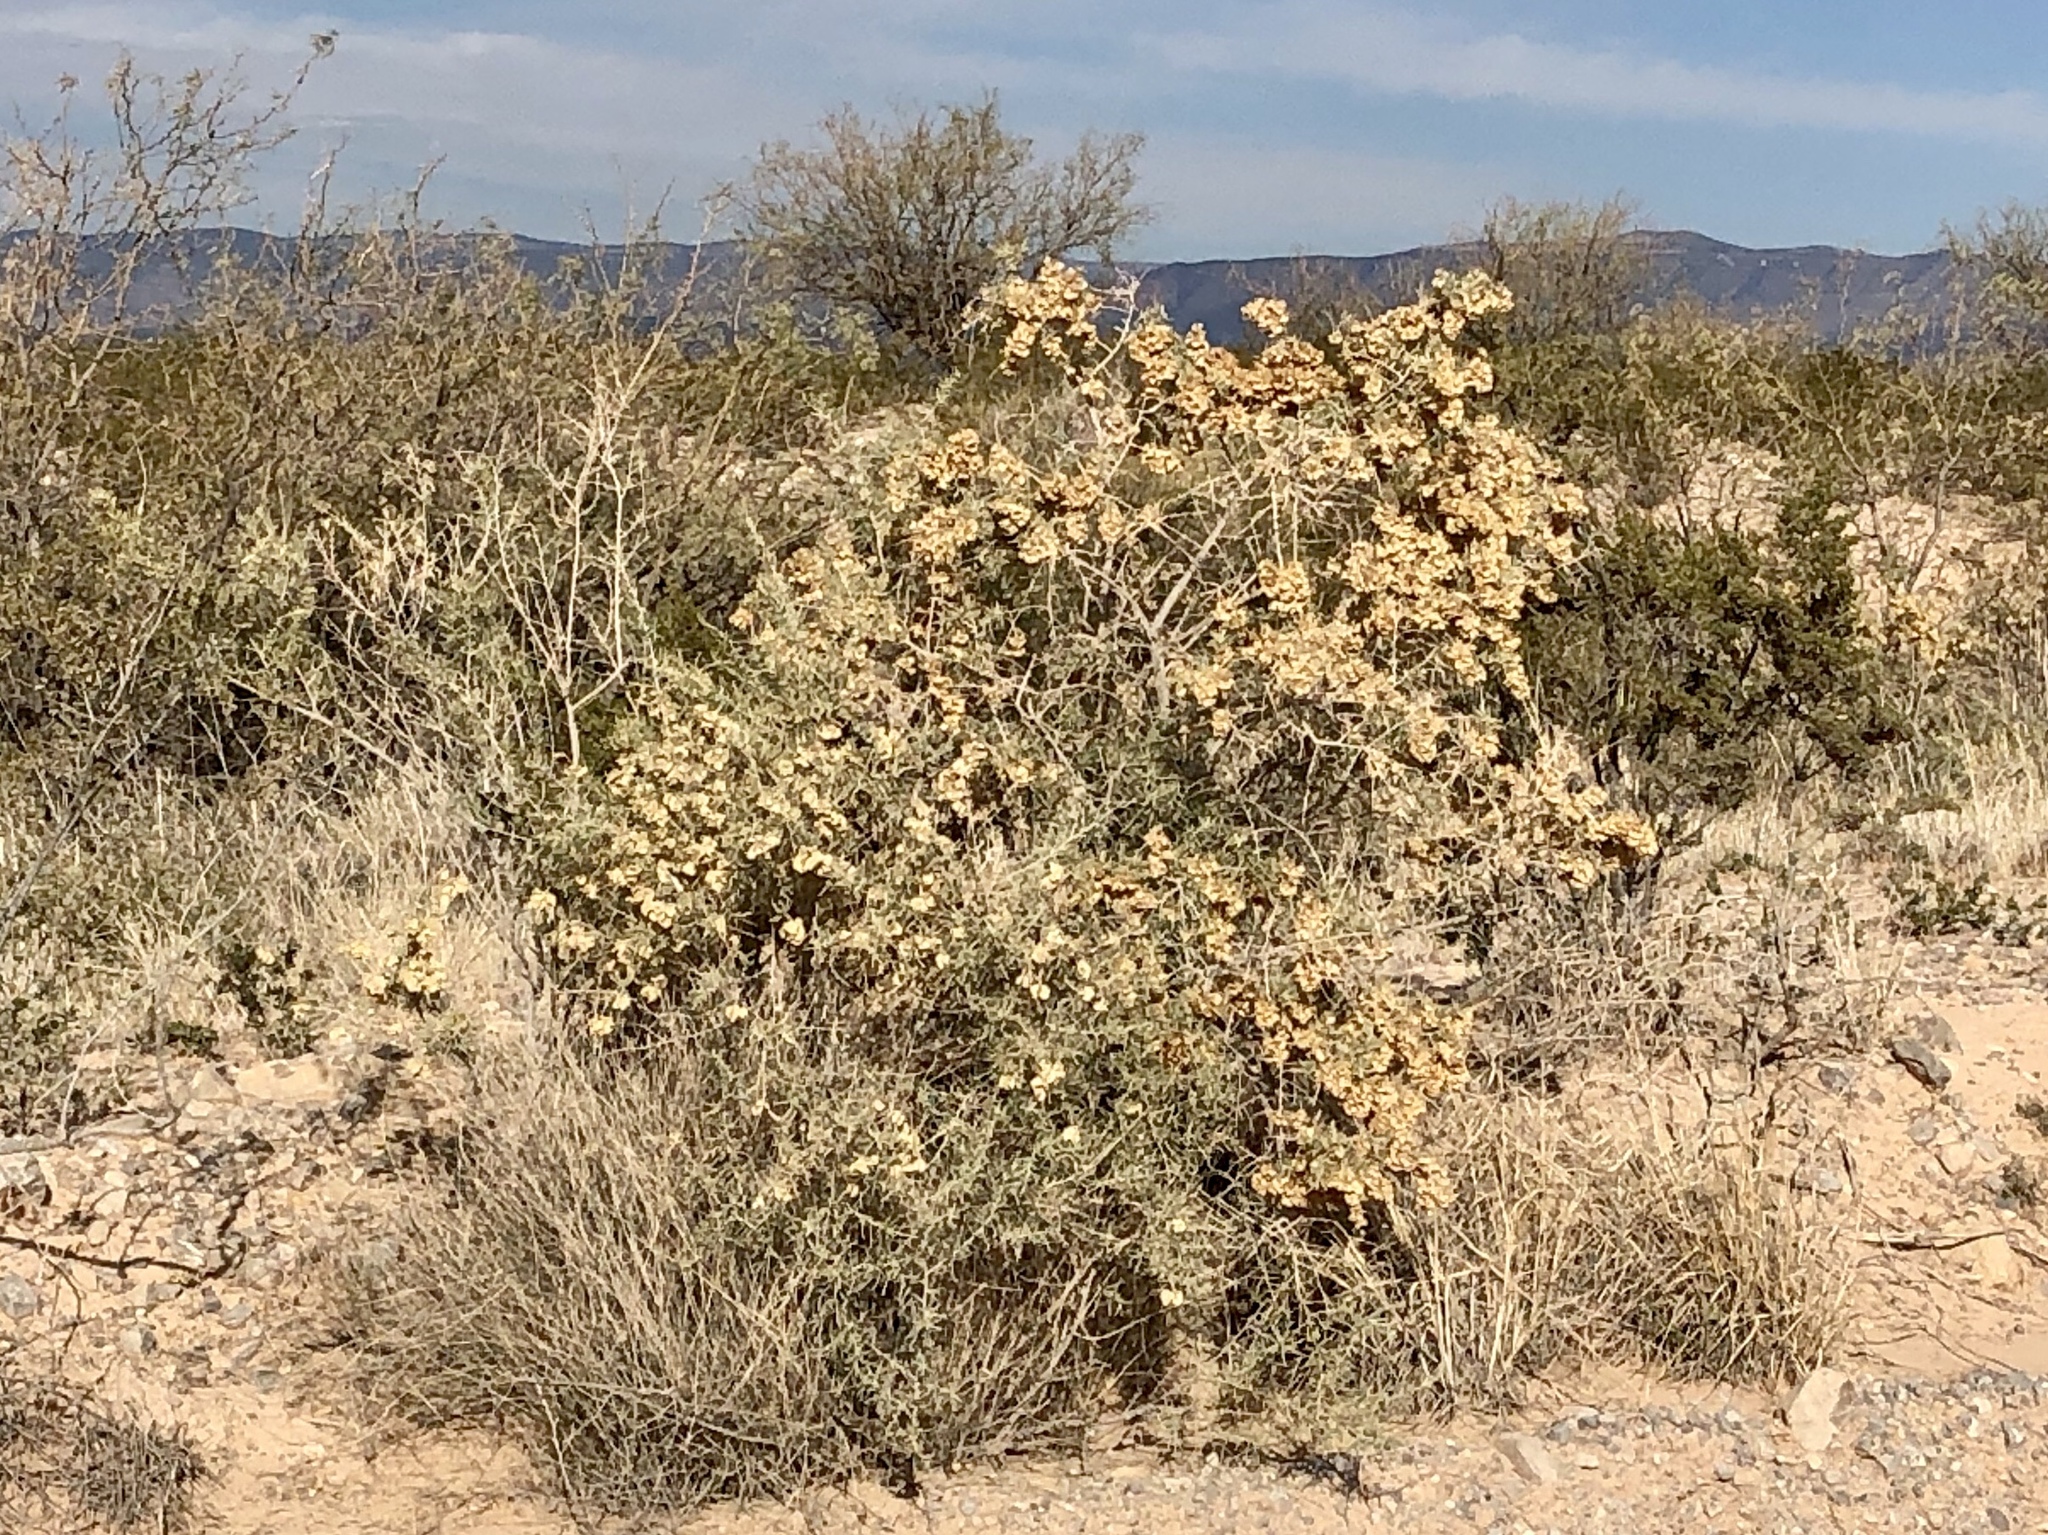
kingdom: Plantae
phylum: Tracheophyta
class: Magnoliopsida
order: Caryophyllales
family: Amaranthaceae
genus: Atriplex
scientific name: Atriplex canescens
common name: Four-wing saltbush
